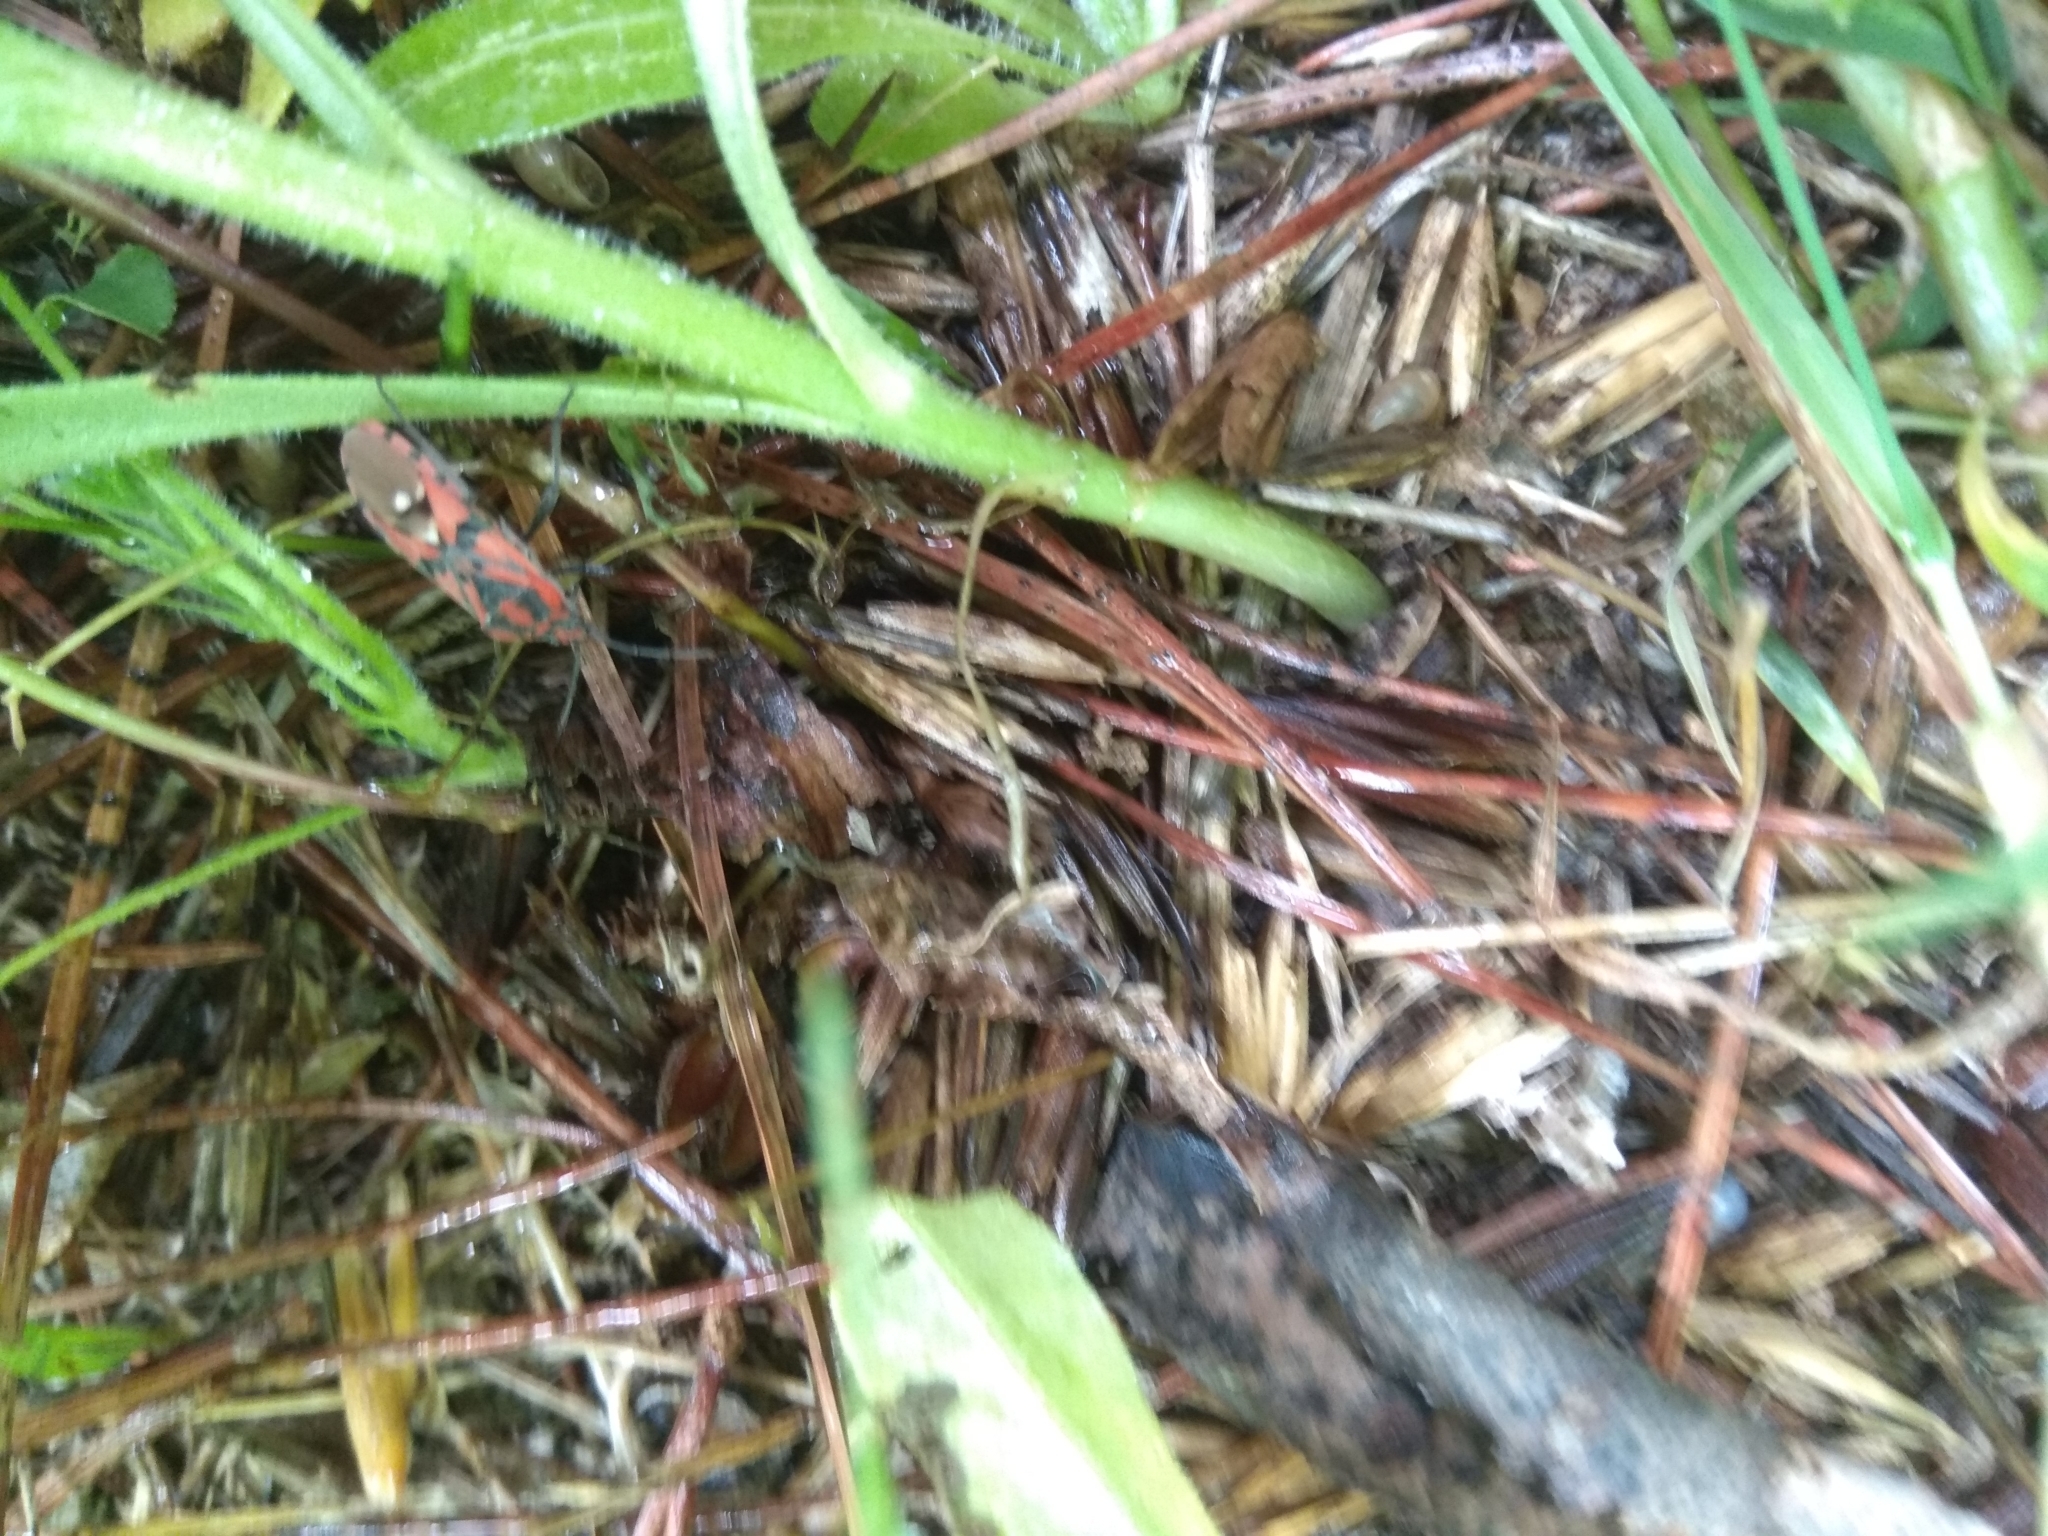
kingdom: Animalia
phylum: Arthropoda
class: Insecta
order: Hemiptera
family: Lygaeidae
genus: Spilostethus
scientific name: Spilostethus pandurus
